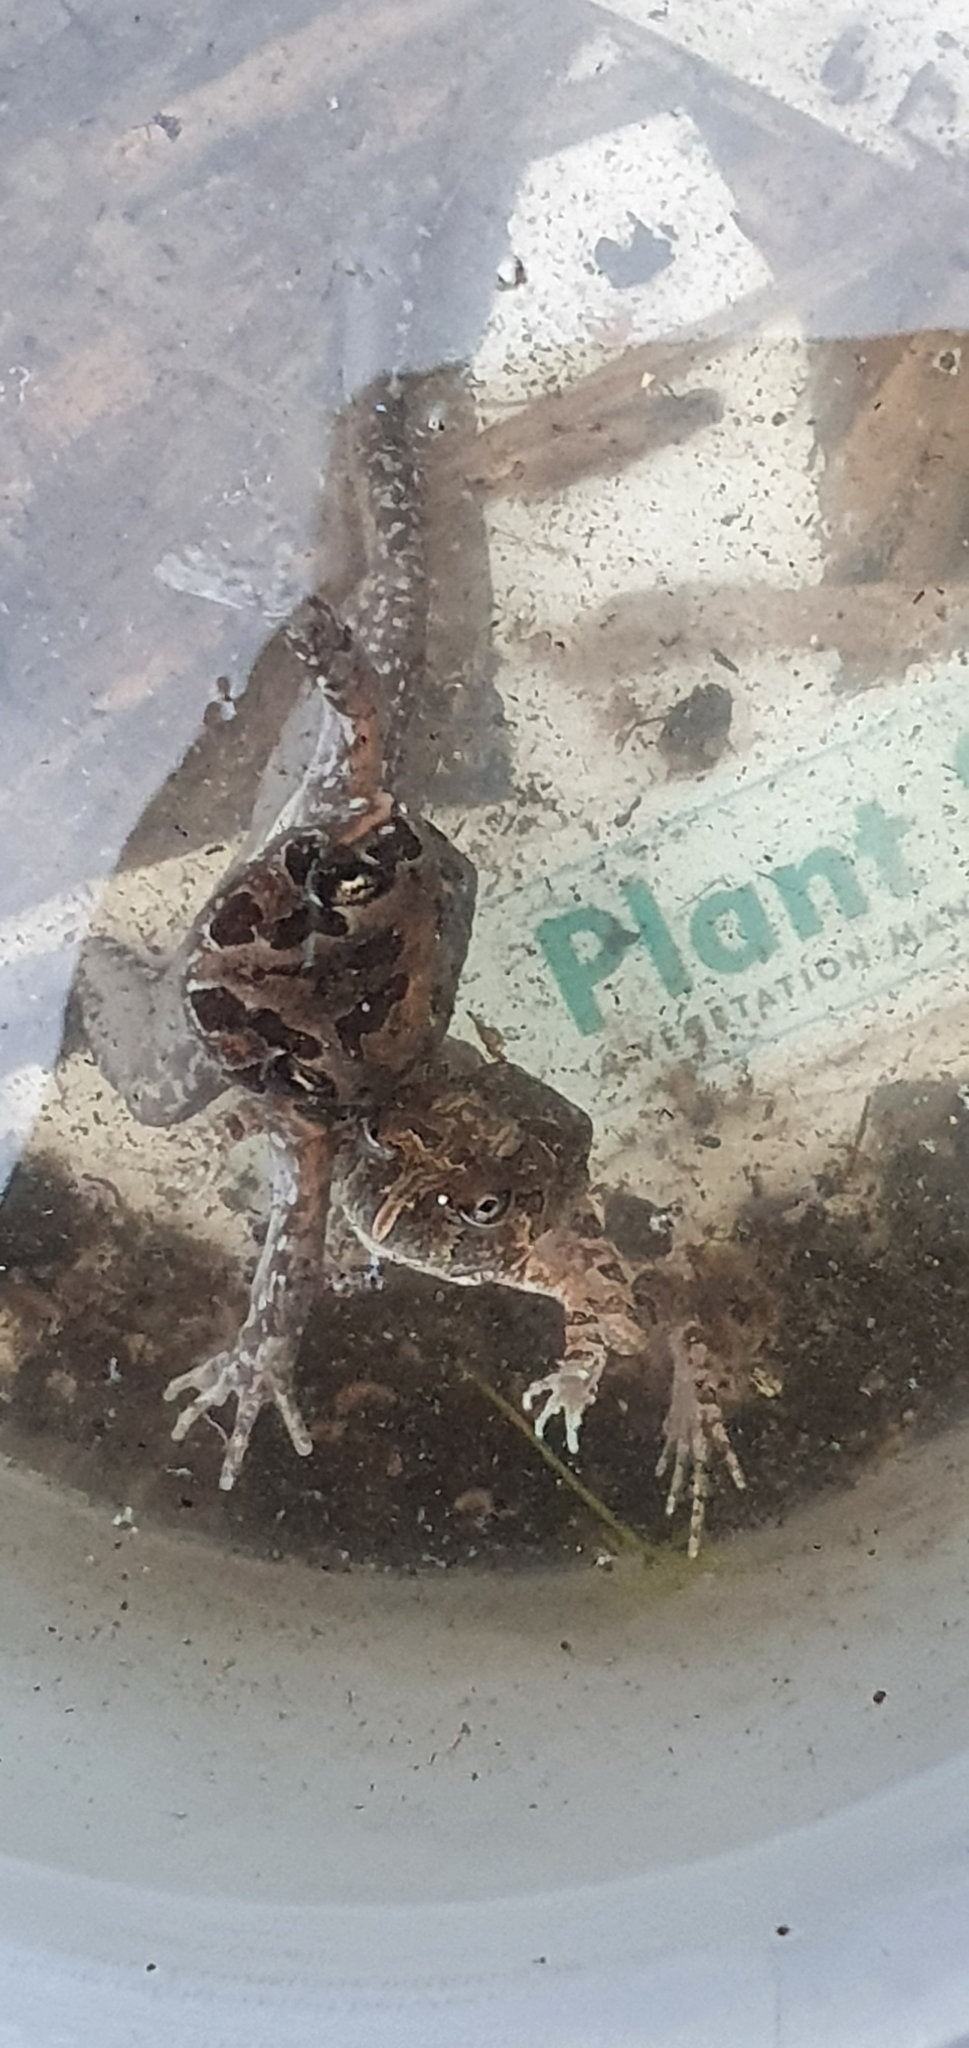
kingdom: Animalia
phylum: Chordata
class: Amphibia
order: Anura
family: Limnodynastidae
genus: Limnodynastes
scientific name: Limnodynastes salmini
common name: Salmon-striped frog
